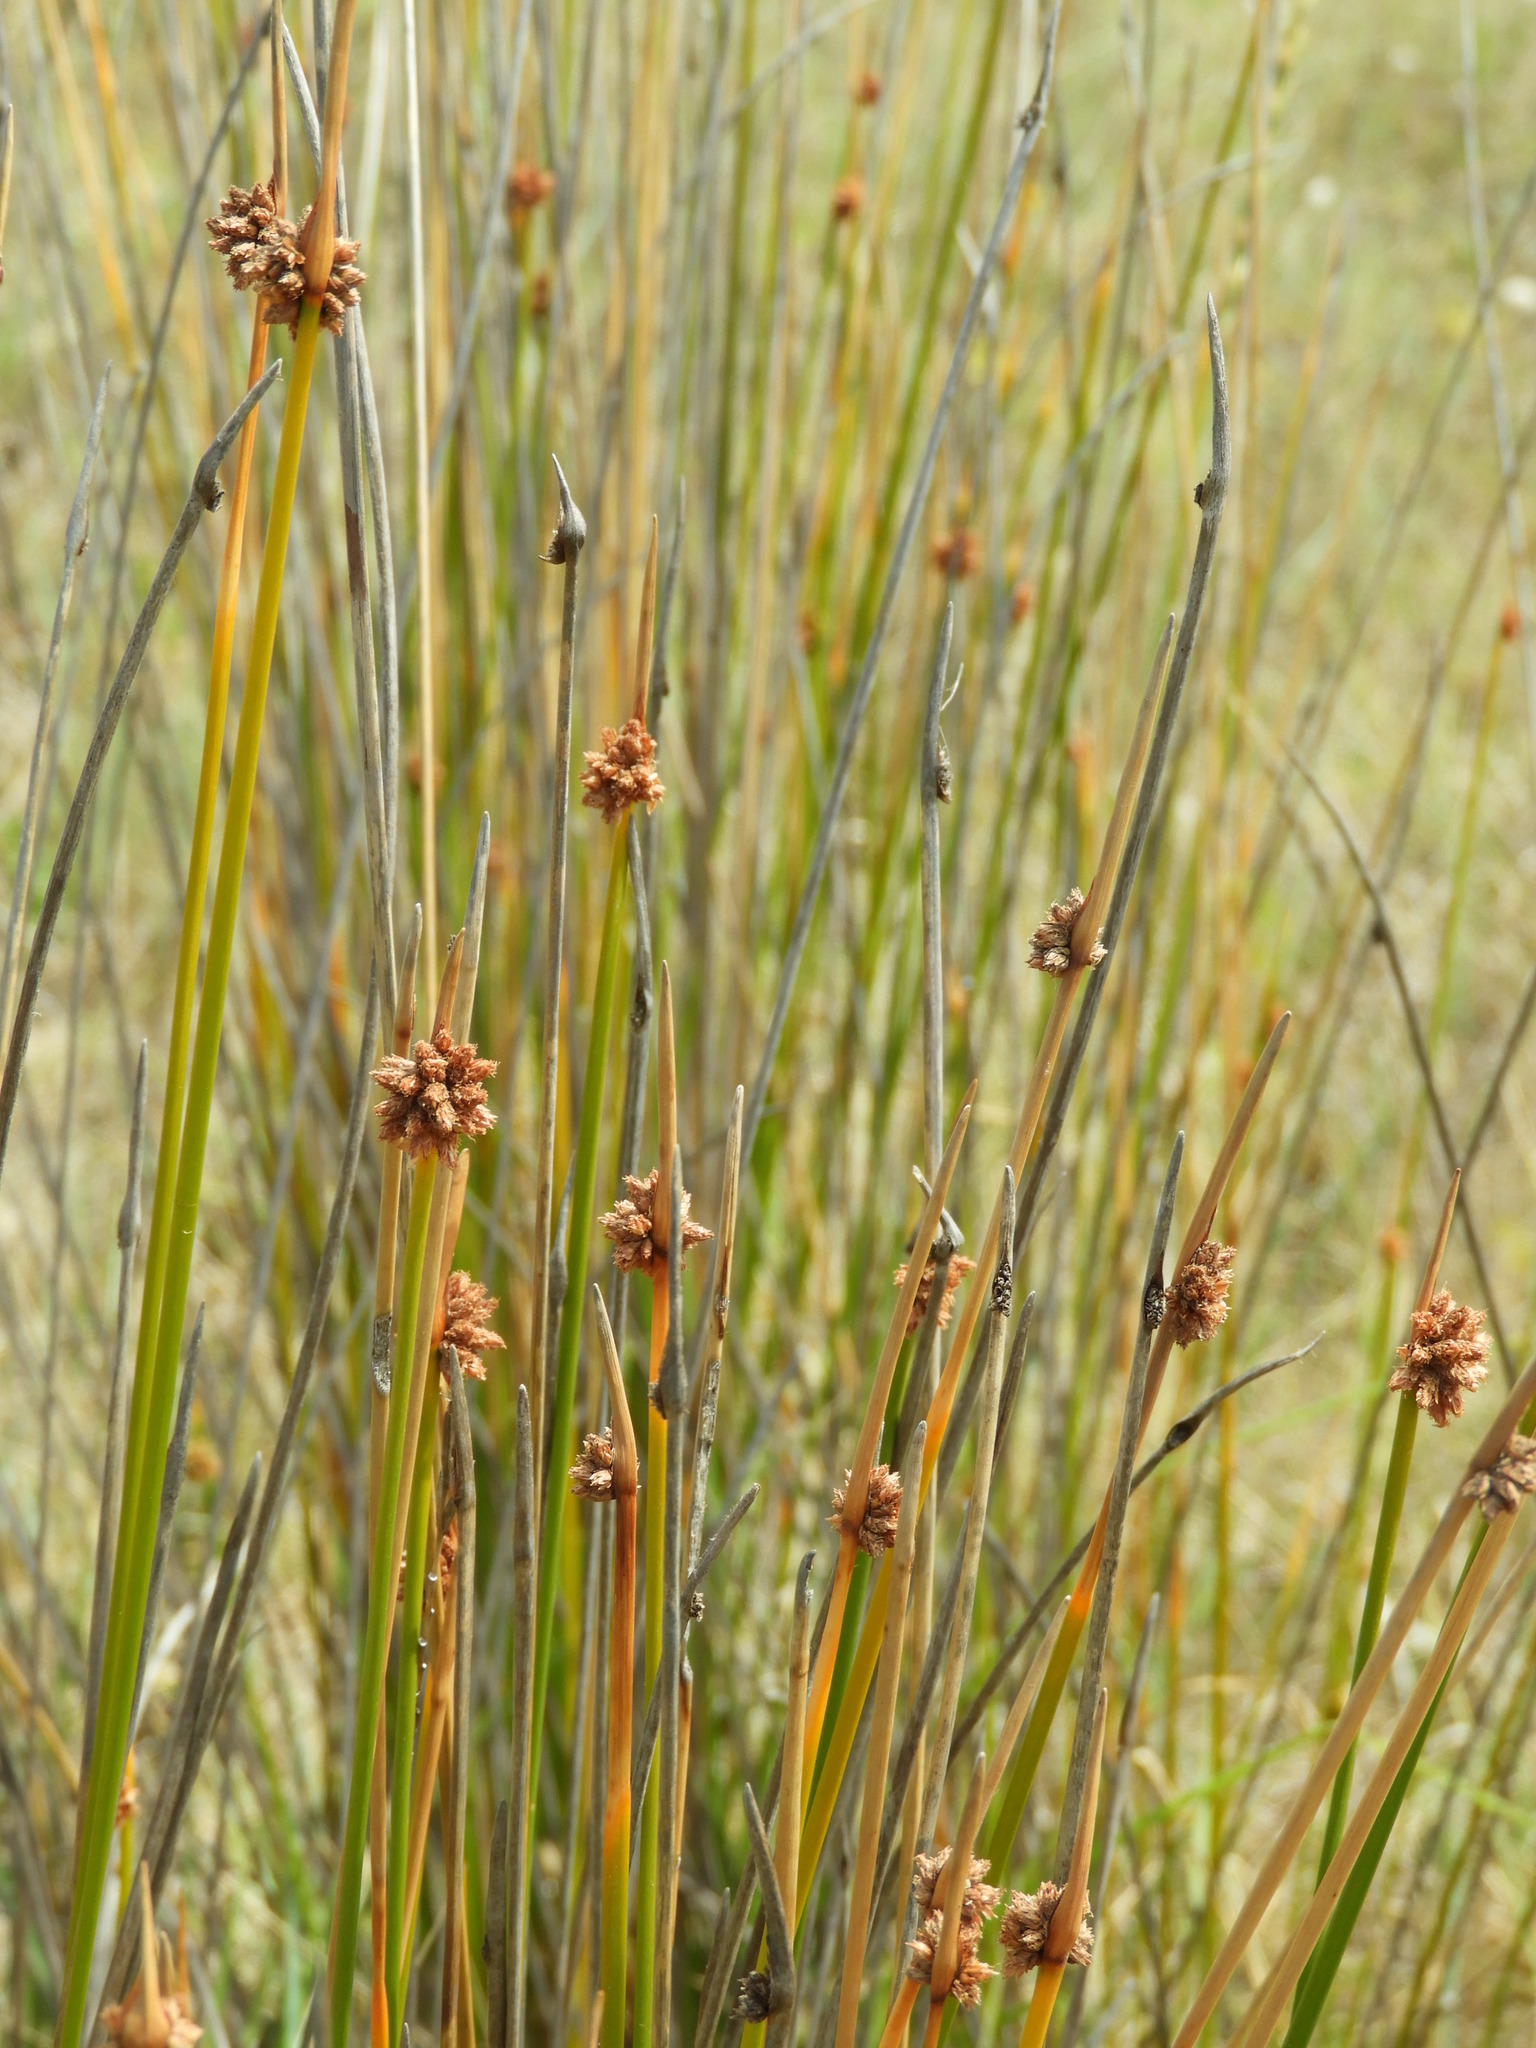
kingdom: Plantae
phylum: Tracheophyta
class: Liliopsida
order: Poales
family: Cyperaceae
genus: Ficinia
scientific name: Ficinia nodosa
